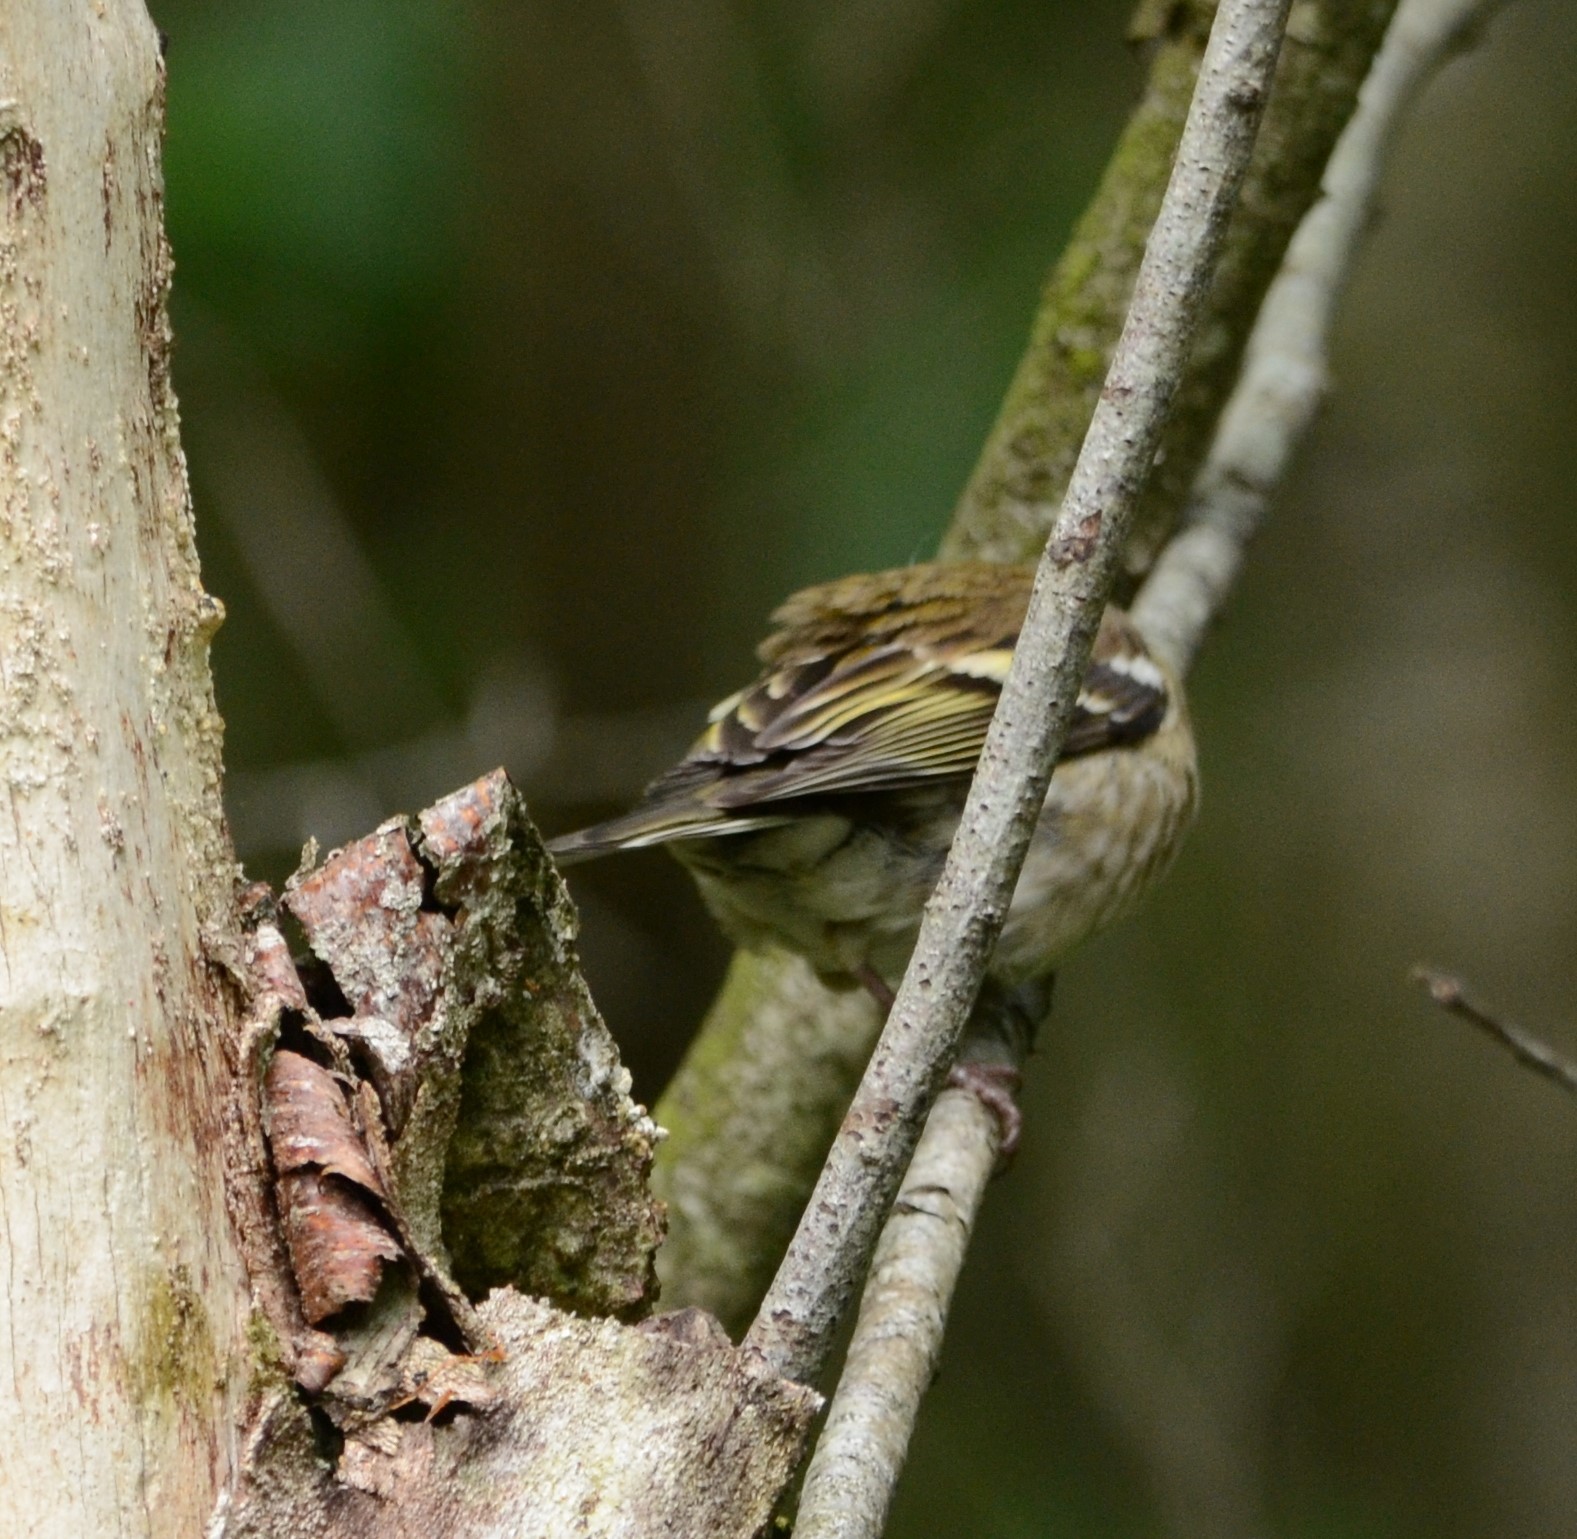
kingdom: Animalia
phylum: Chordata
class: Aves
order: Passeriformes
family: Fringillidae
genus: Fringilla
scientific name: Fringilla coelebs
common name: Common chaffinch
